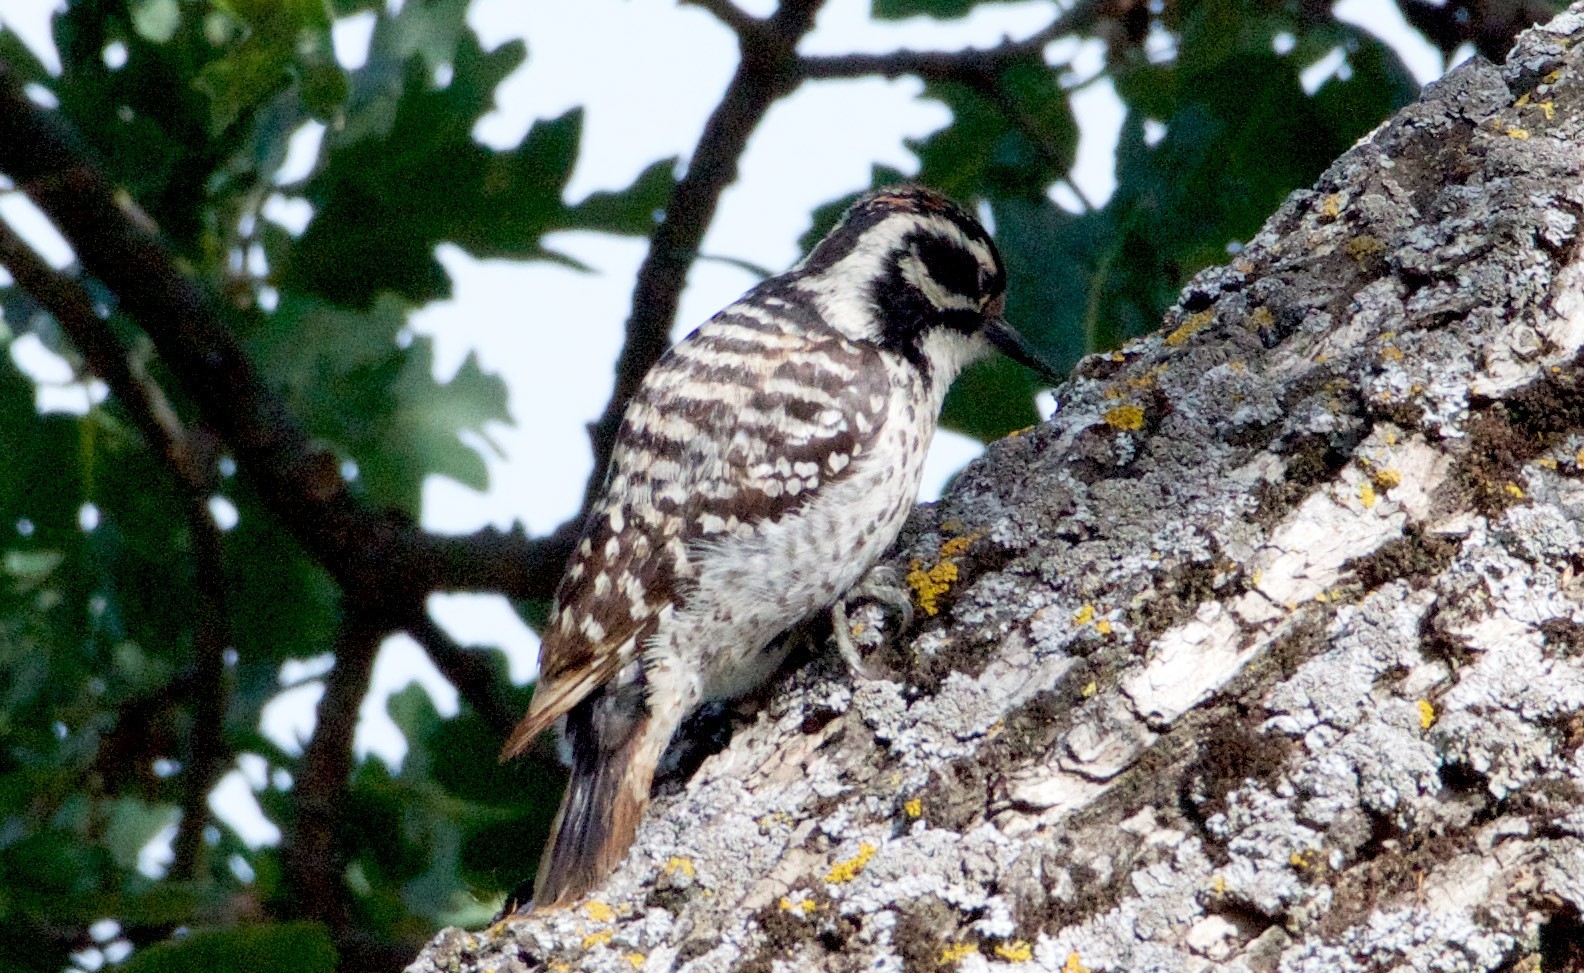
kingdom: Animalia
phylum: Chordata
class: Aves
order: Piciformes
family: Picidae
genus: Dryobates
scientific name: Dryobates nuttallii
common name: Nuttall's woodpecker
